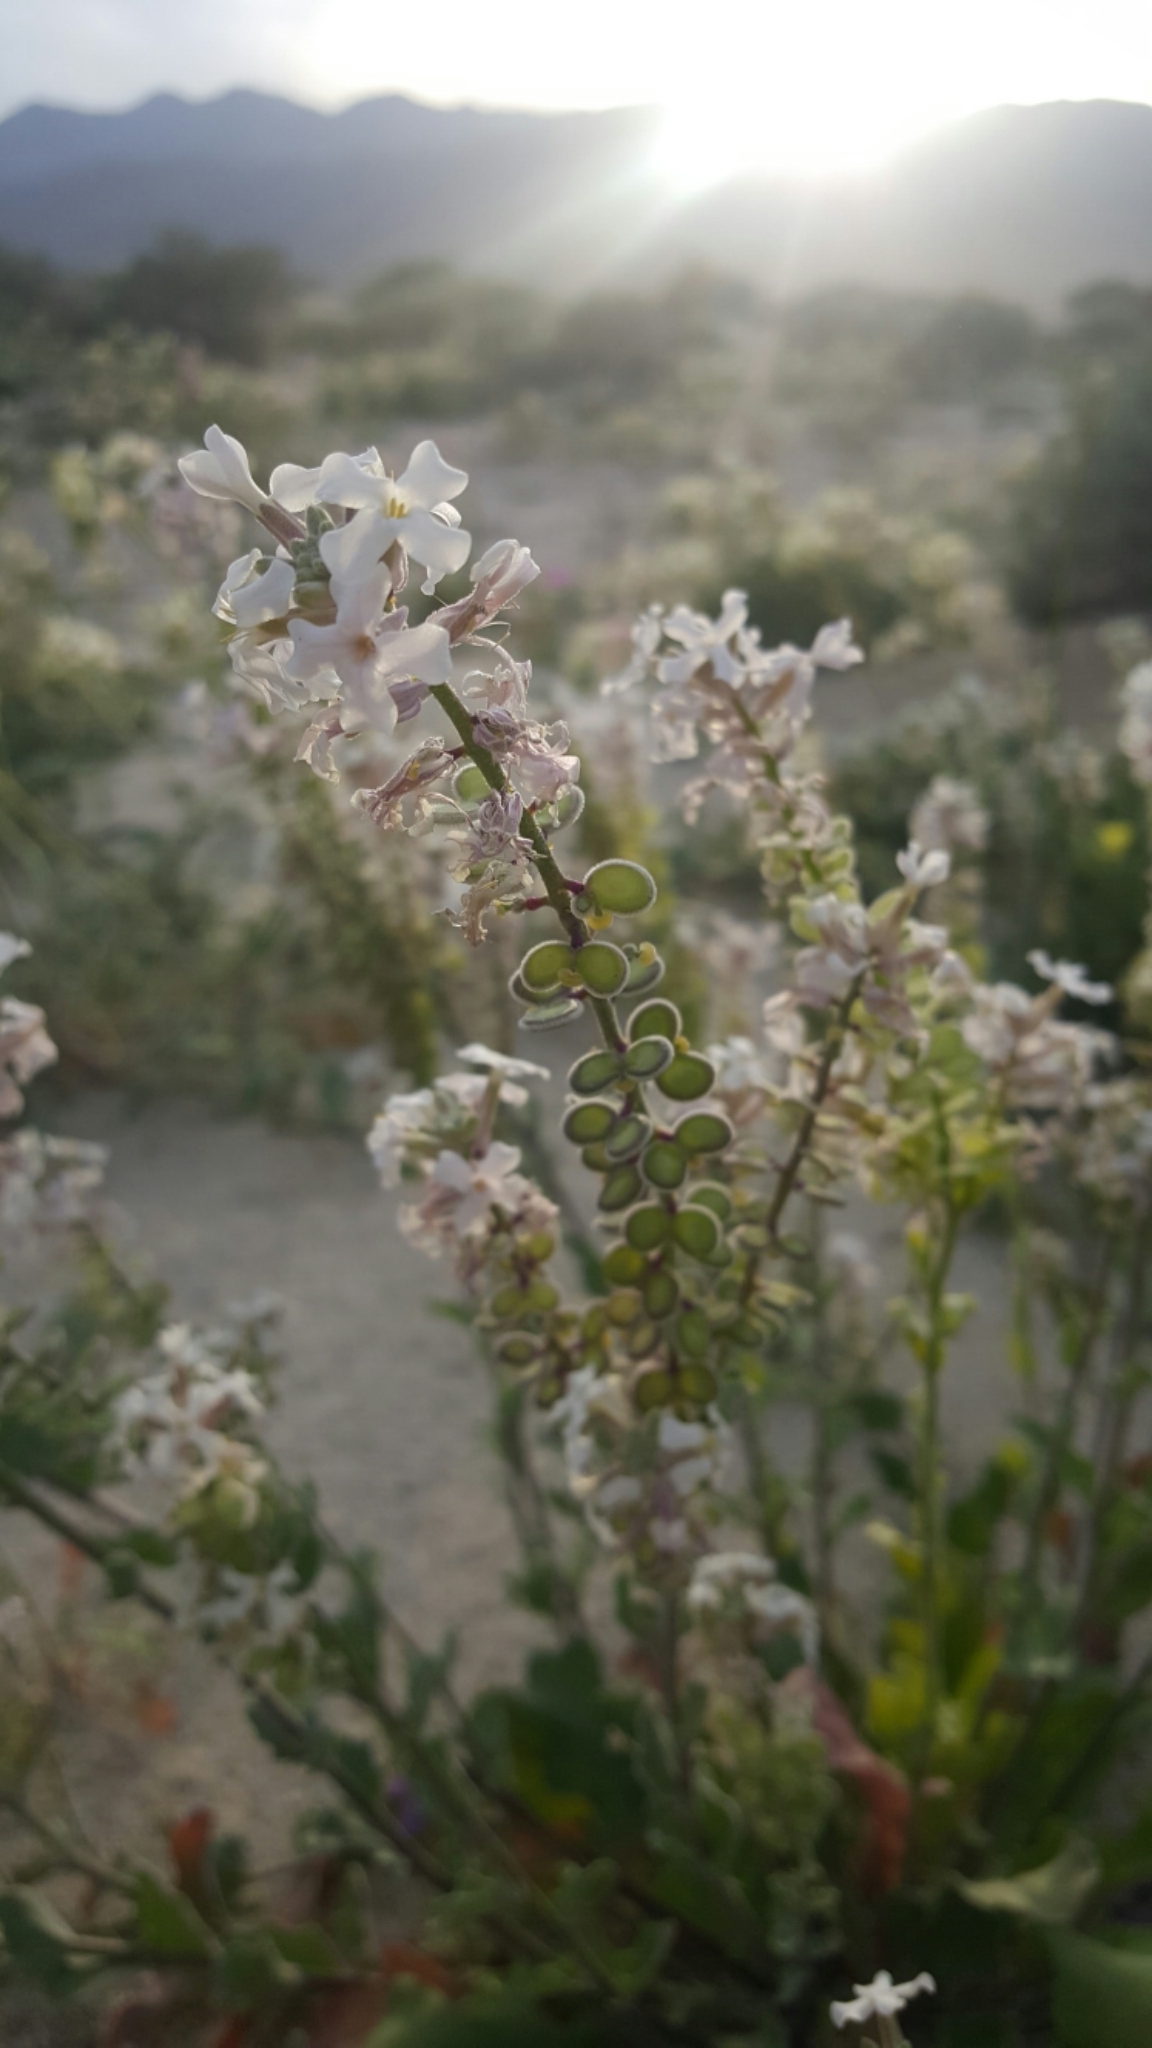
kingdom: Plantae
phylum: Tracheophyta
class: Magnoliopsida
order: Brassicales
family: Brassicaceae
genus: Dithyrea
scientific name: Dithyrea californica
